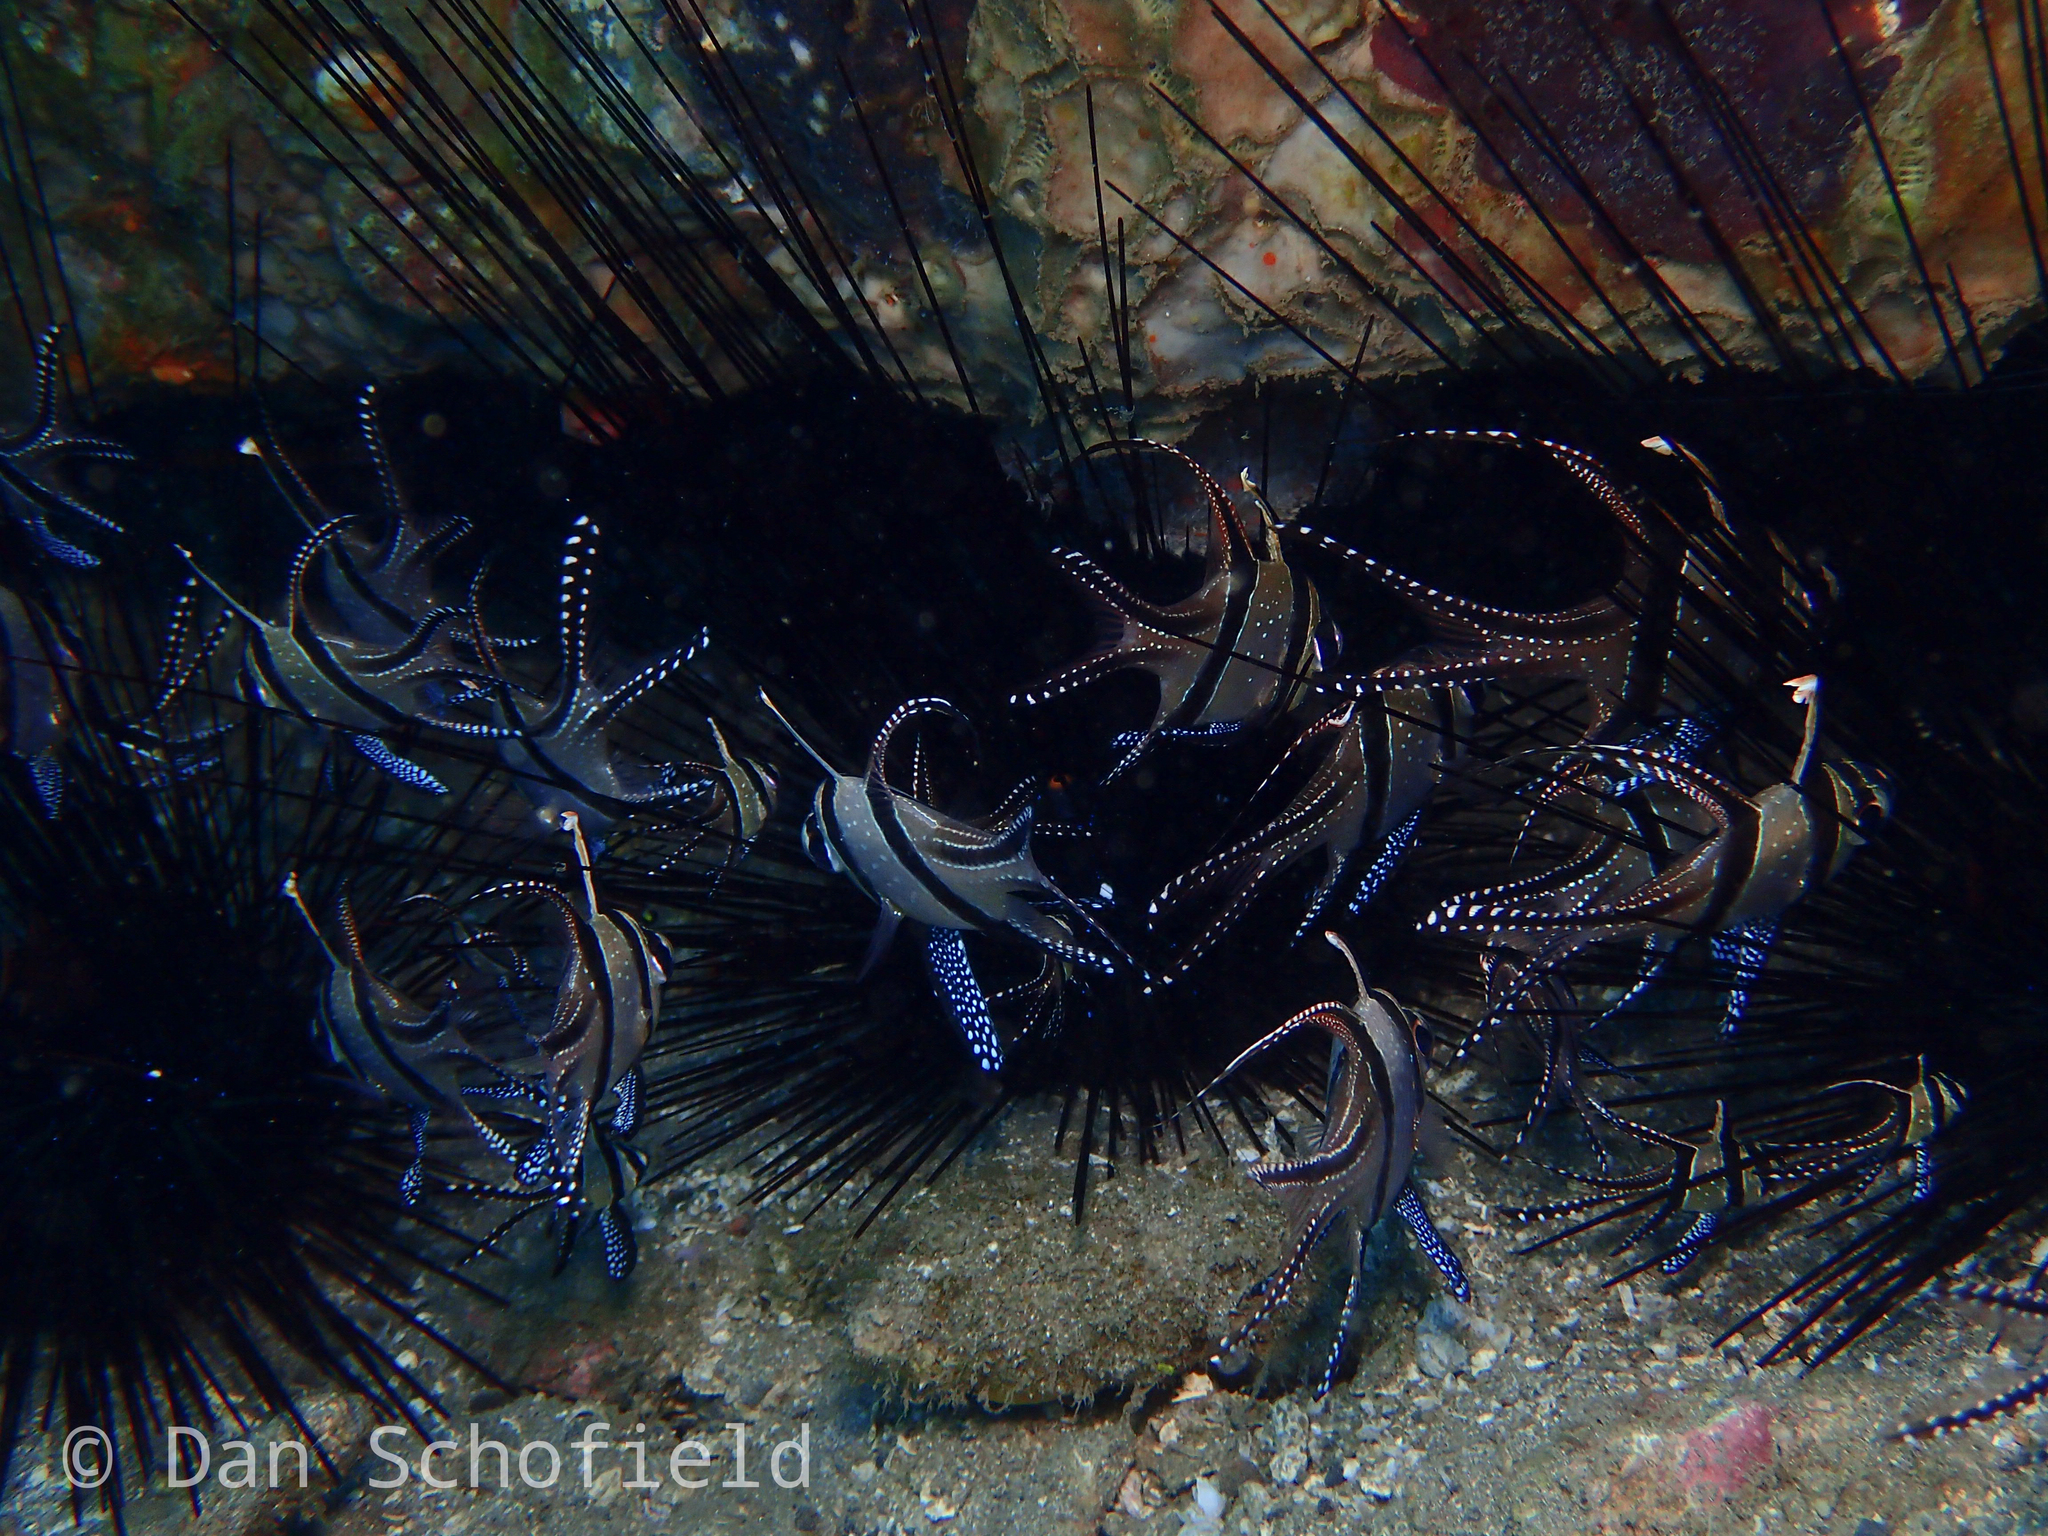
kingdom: Animalia
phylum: Chordata
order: Perciformes
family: Apogonidae
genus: Pterapogon
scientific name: Pterapogon kauderni
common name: Banggai cardinalfish
